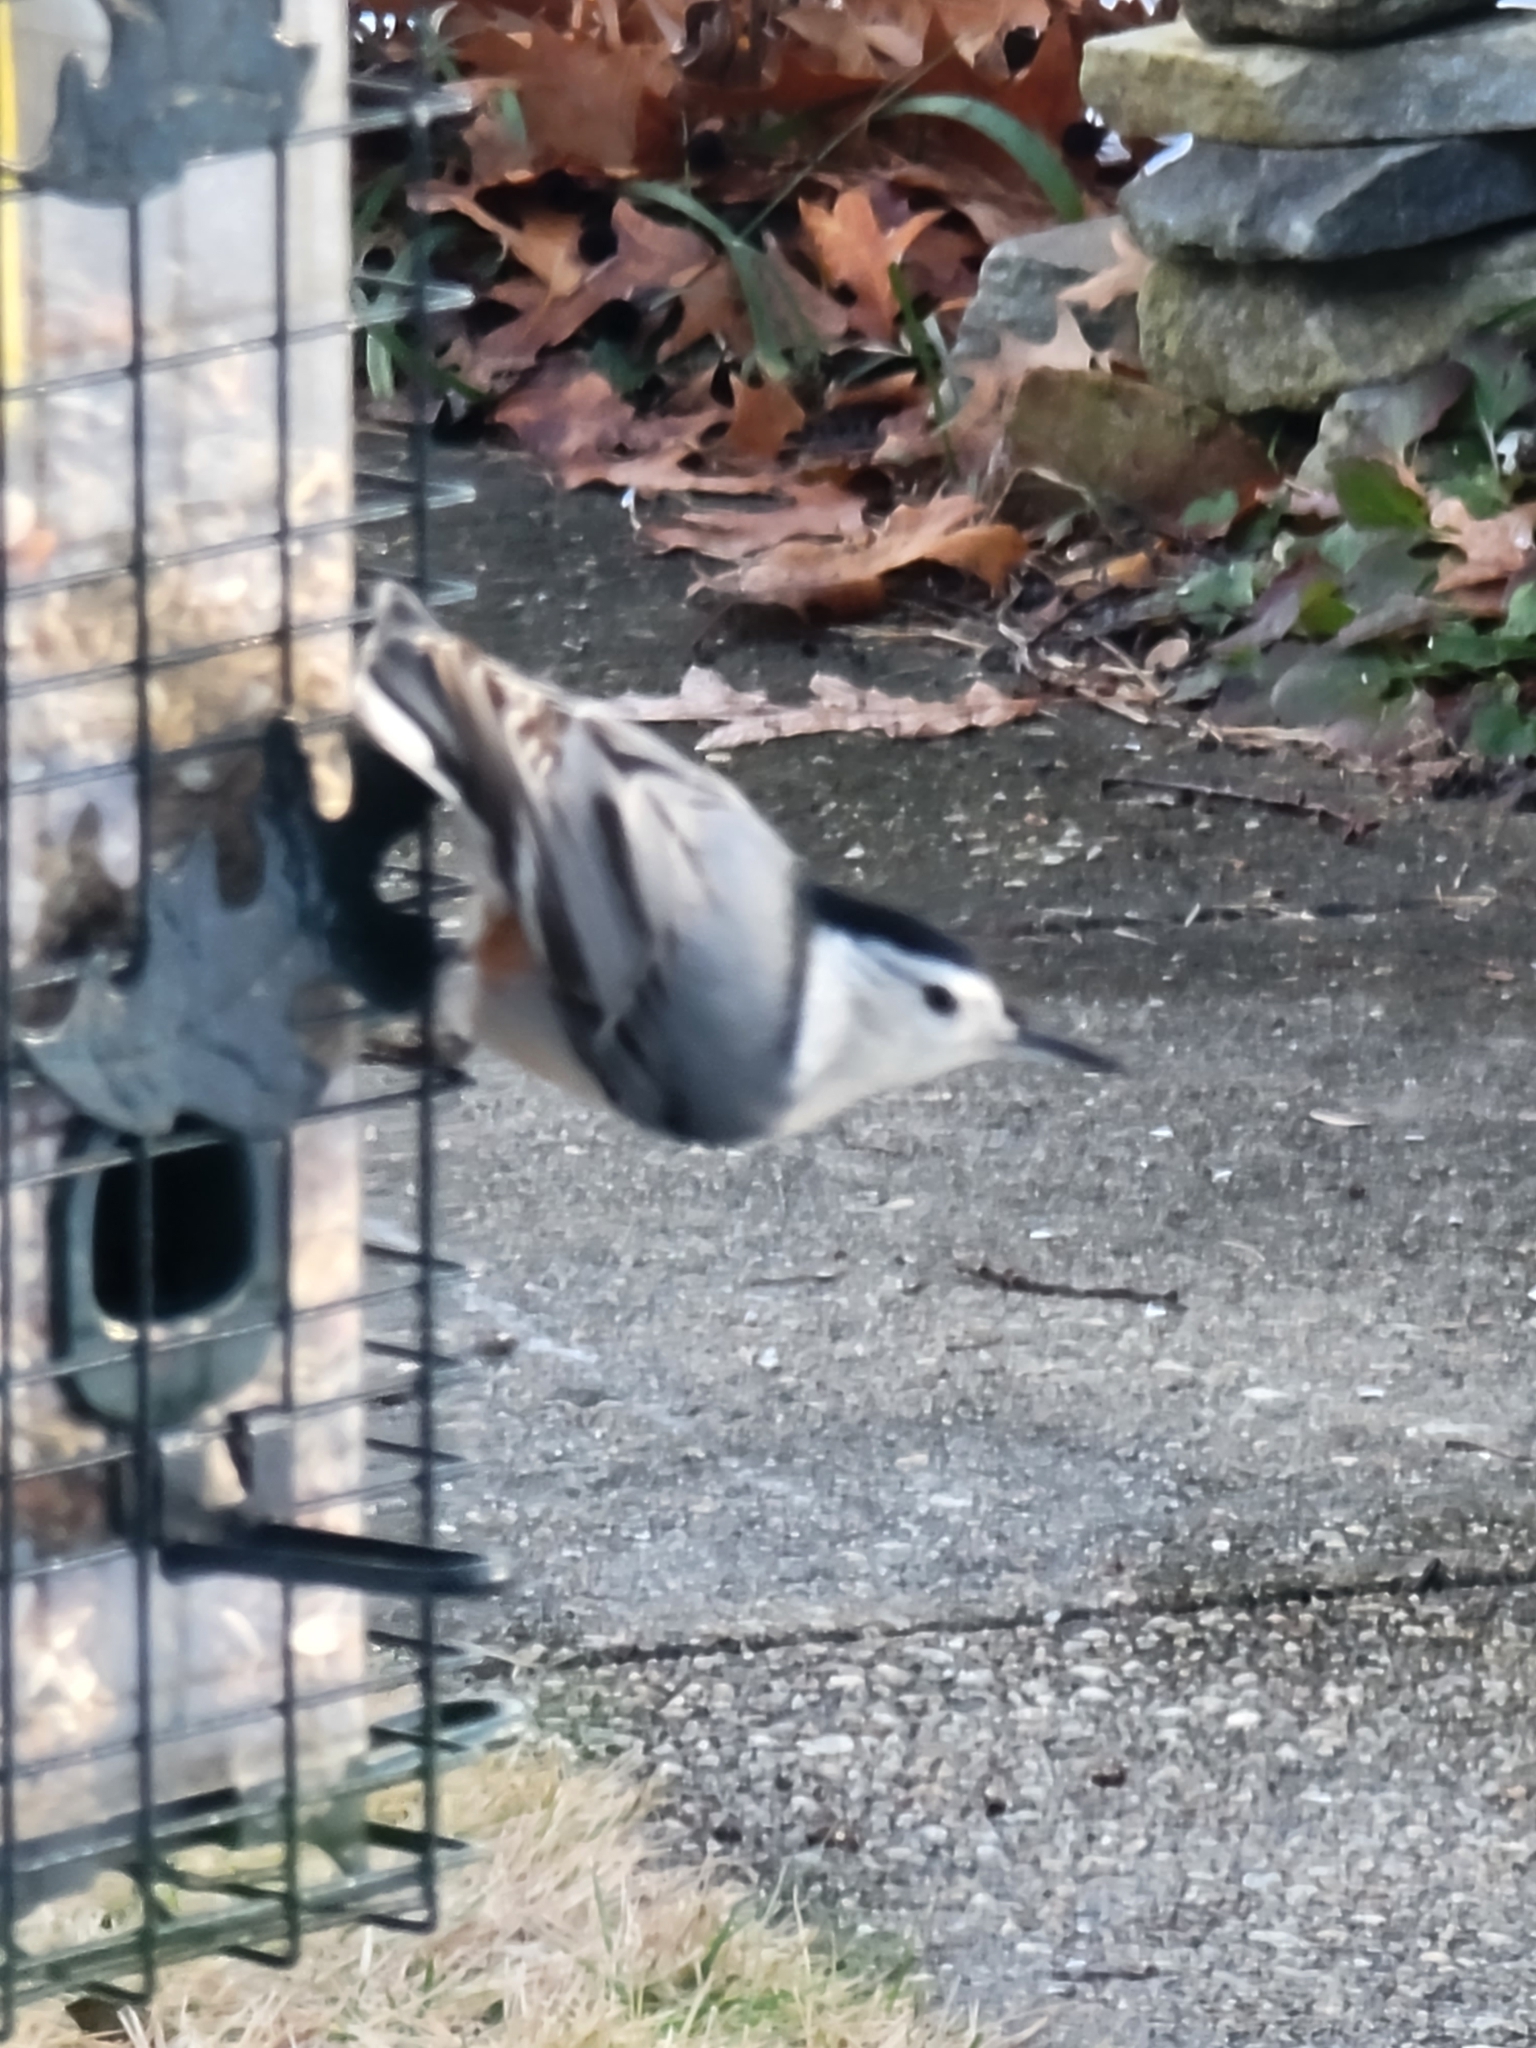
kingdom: Animalia
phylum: Chordata
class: Aves
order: Passeriformes
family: Sittidae
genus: Sitta
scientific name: Sitta carolinensis
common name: White-breasted nuthatch
